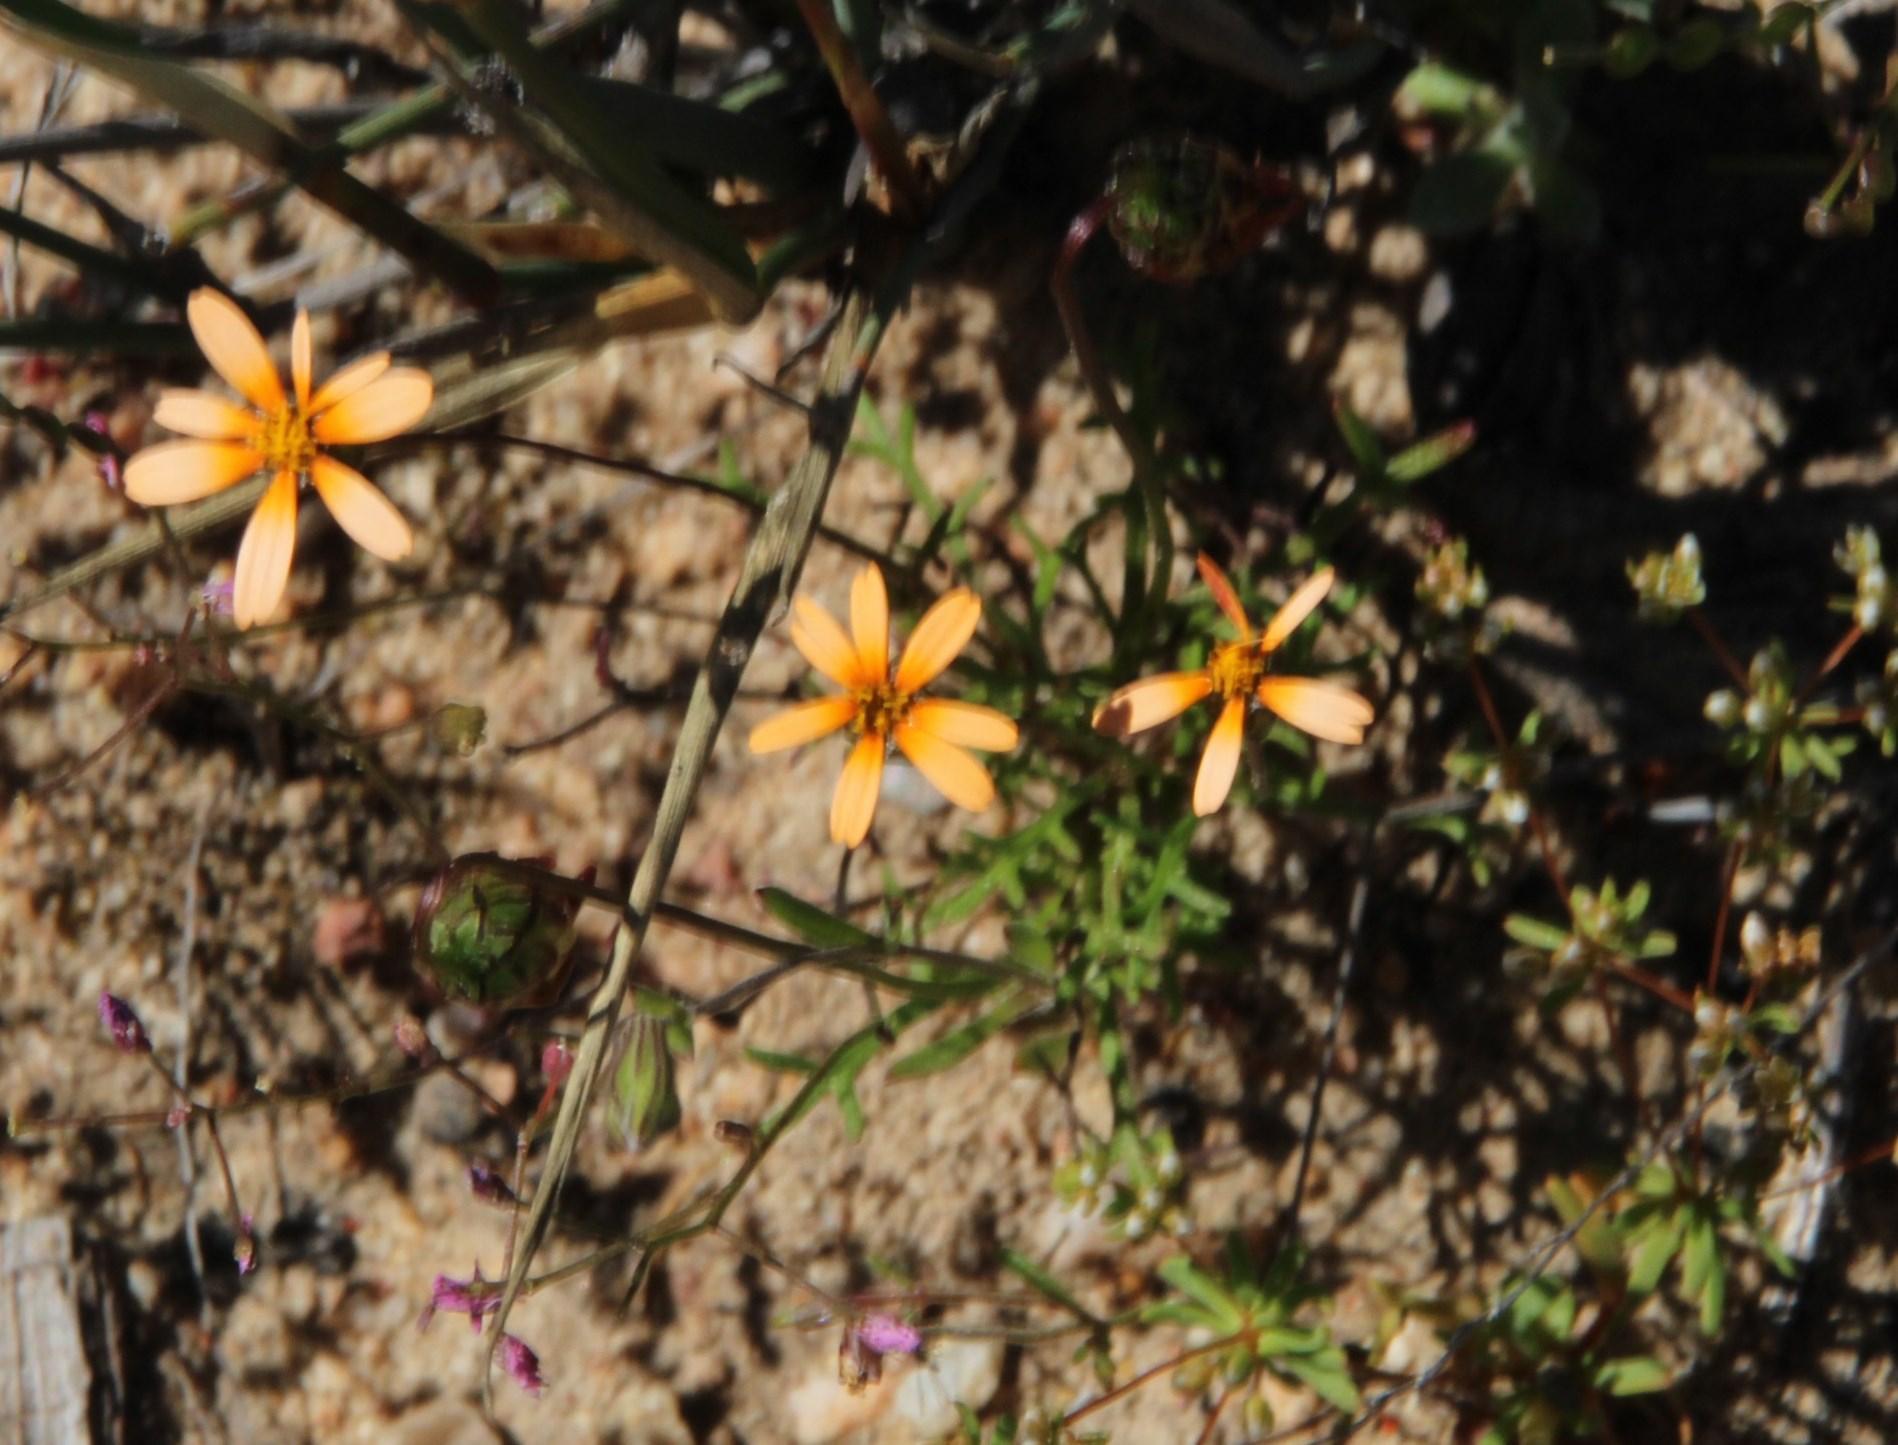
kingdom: Plantae
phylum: Tracheophyta
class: Magnoliopsida
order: Asterales
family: Asteraceae
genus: Ursinia
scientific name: Ursinia anthemoides
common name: Ursinia
